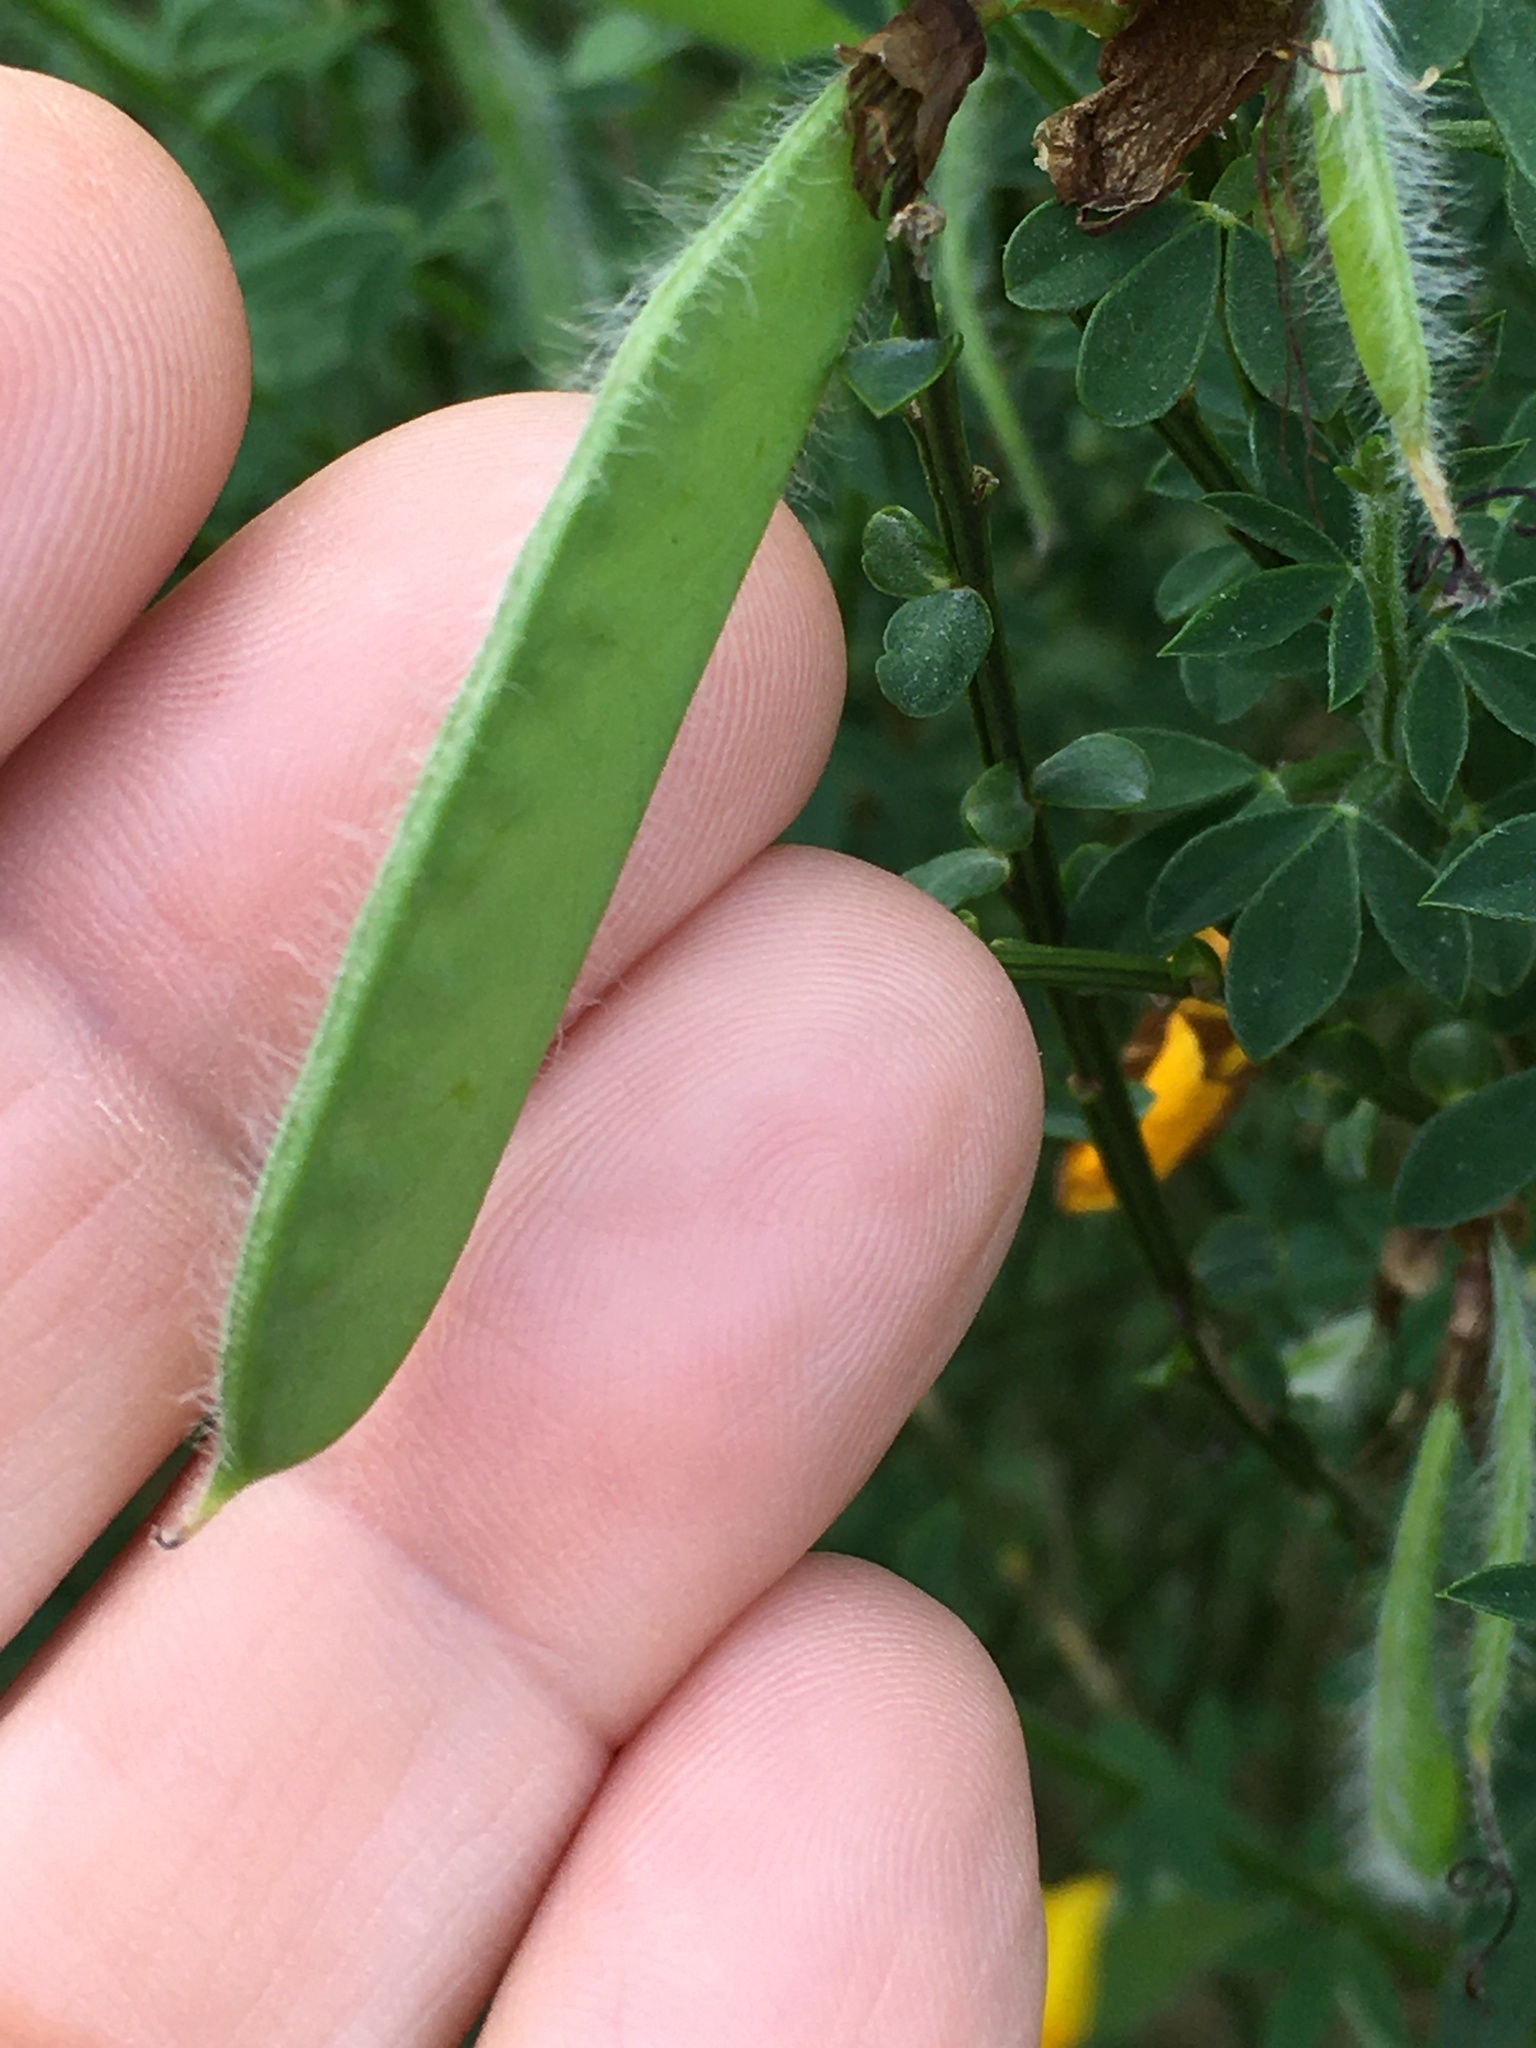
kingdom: Plantae
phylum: Tracheophyta
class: Magnoliopsida
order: Fabales
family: Fabaceae
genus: Cytisus
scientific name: Cytisus scoparius
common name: Scotch broom
